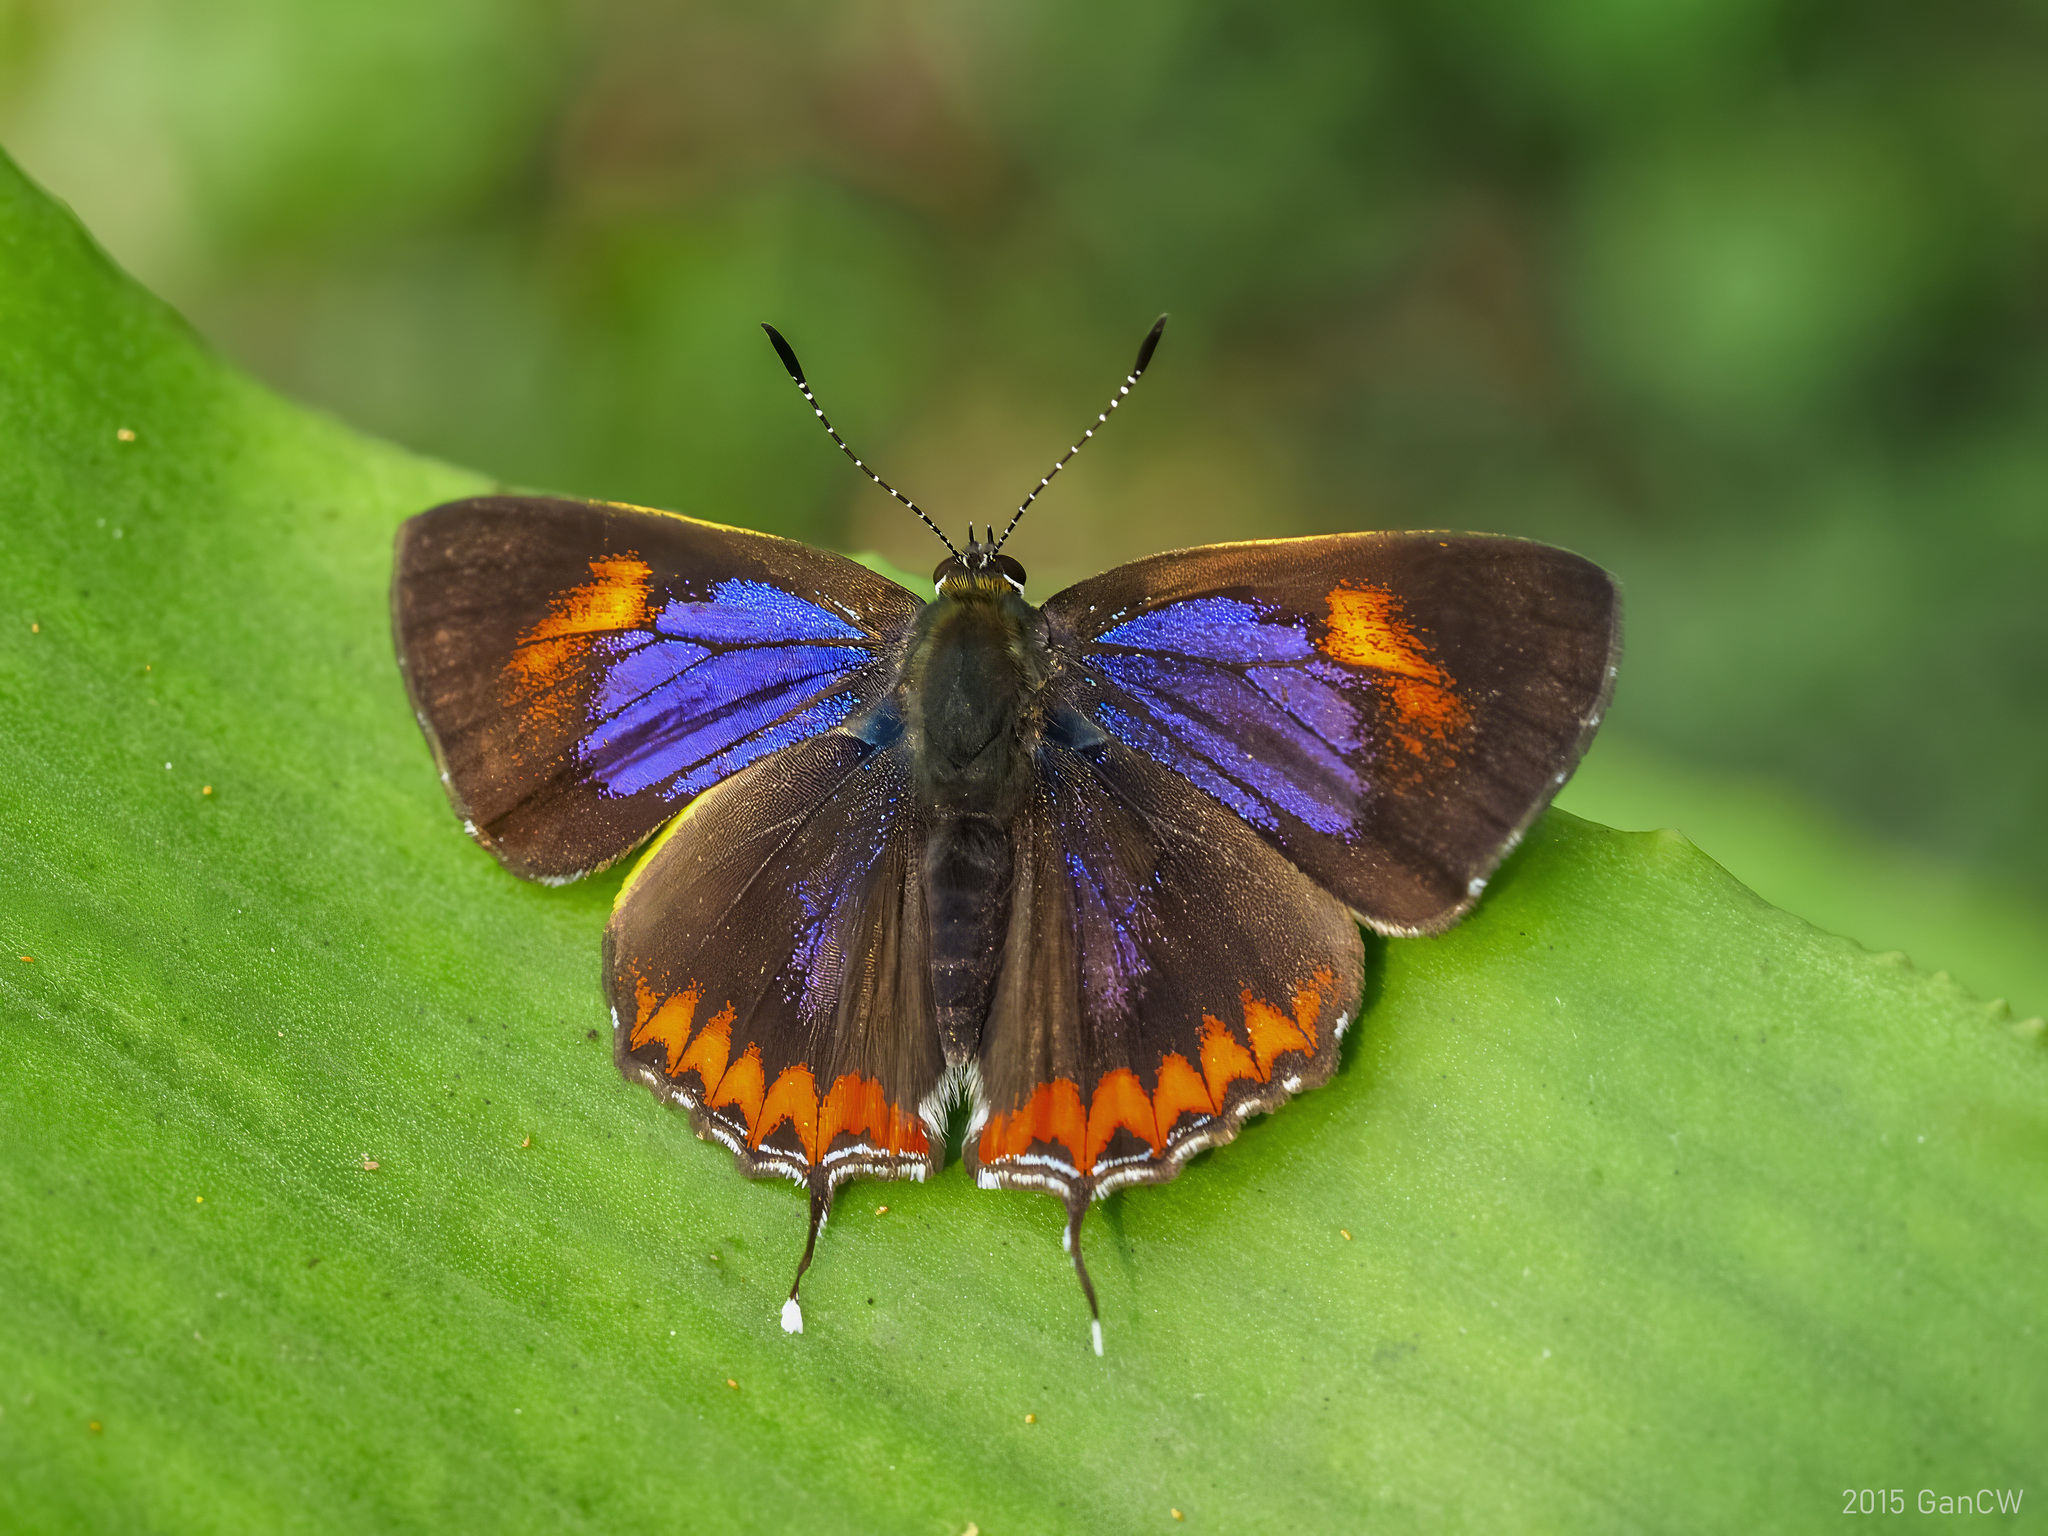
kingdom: Animalia
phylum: Arthropoda
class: Insecta
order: Lepidoptera
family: Lycaenidae
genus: Heliophorus
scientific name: Heliophorus epicles
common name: Purple sapphire
